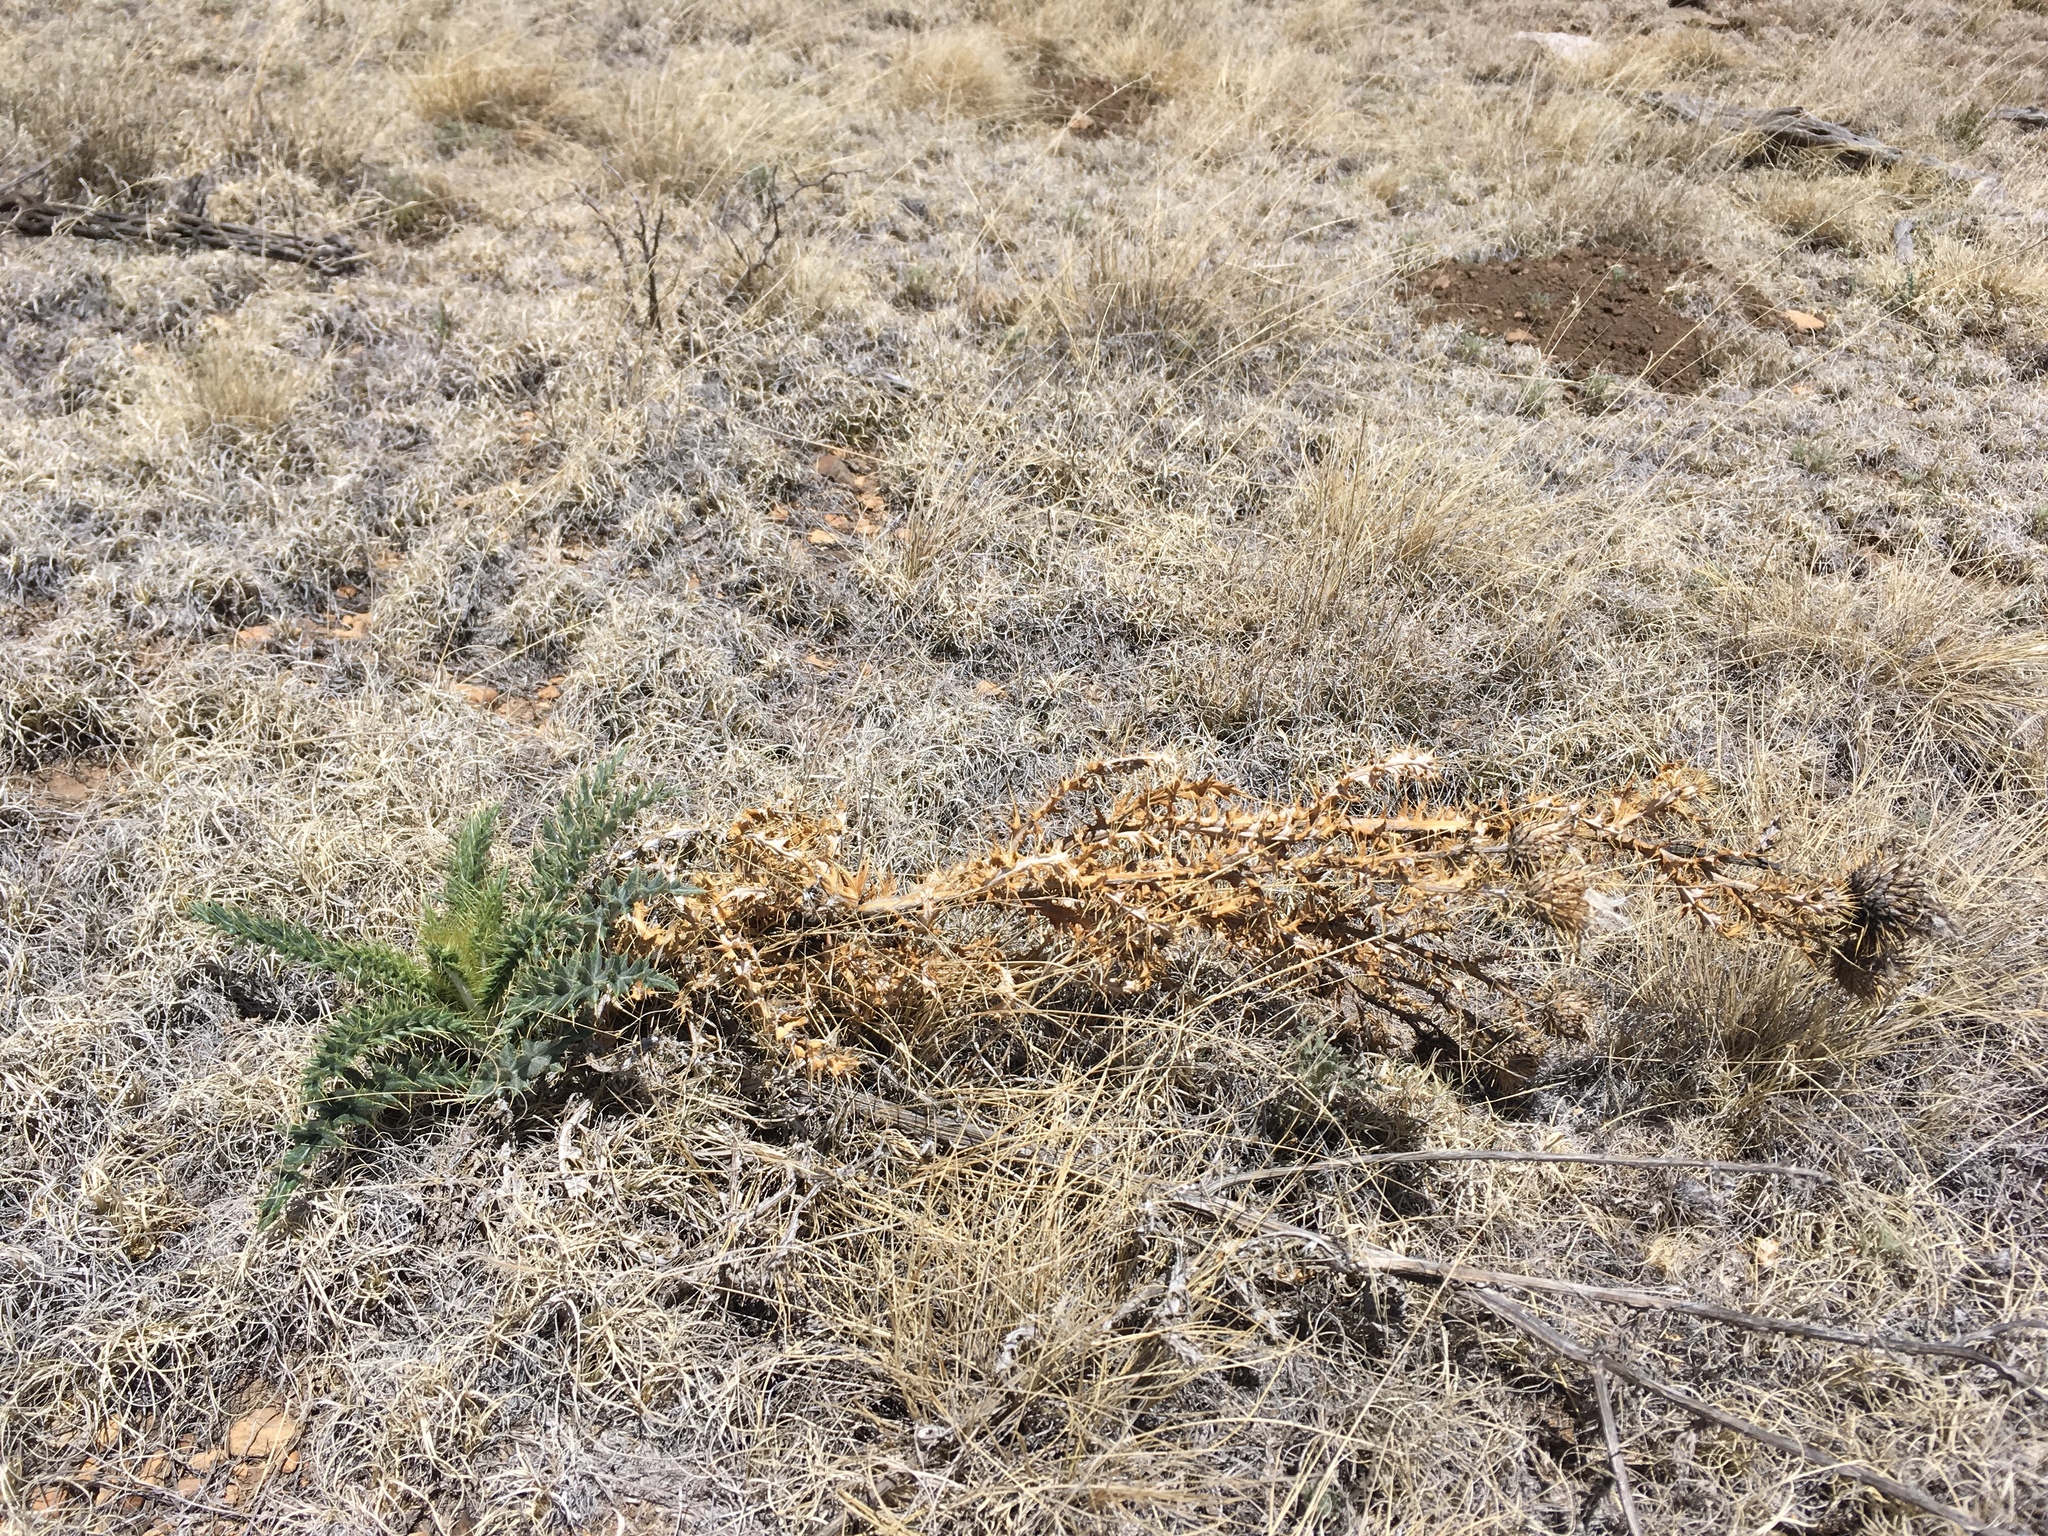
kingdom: Plantae
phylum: Tracheophyta
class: Magnoliopsida
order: Asterales
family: Asteraceae
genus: Cirsium
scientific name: Cirsium ochrocentrum
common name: Yellow-spine thistle
